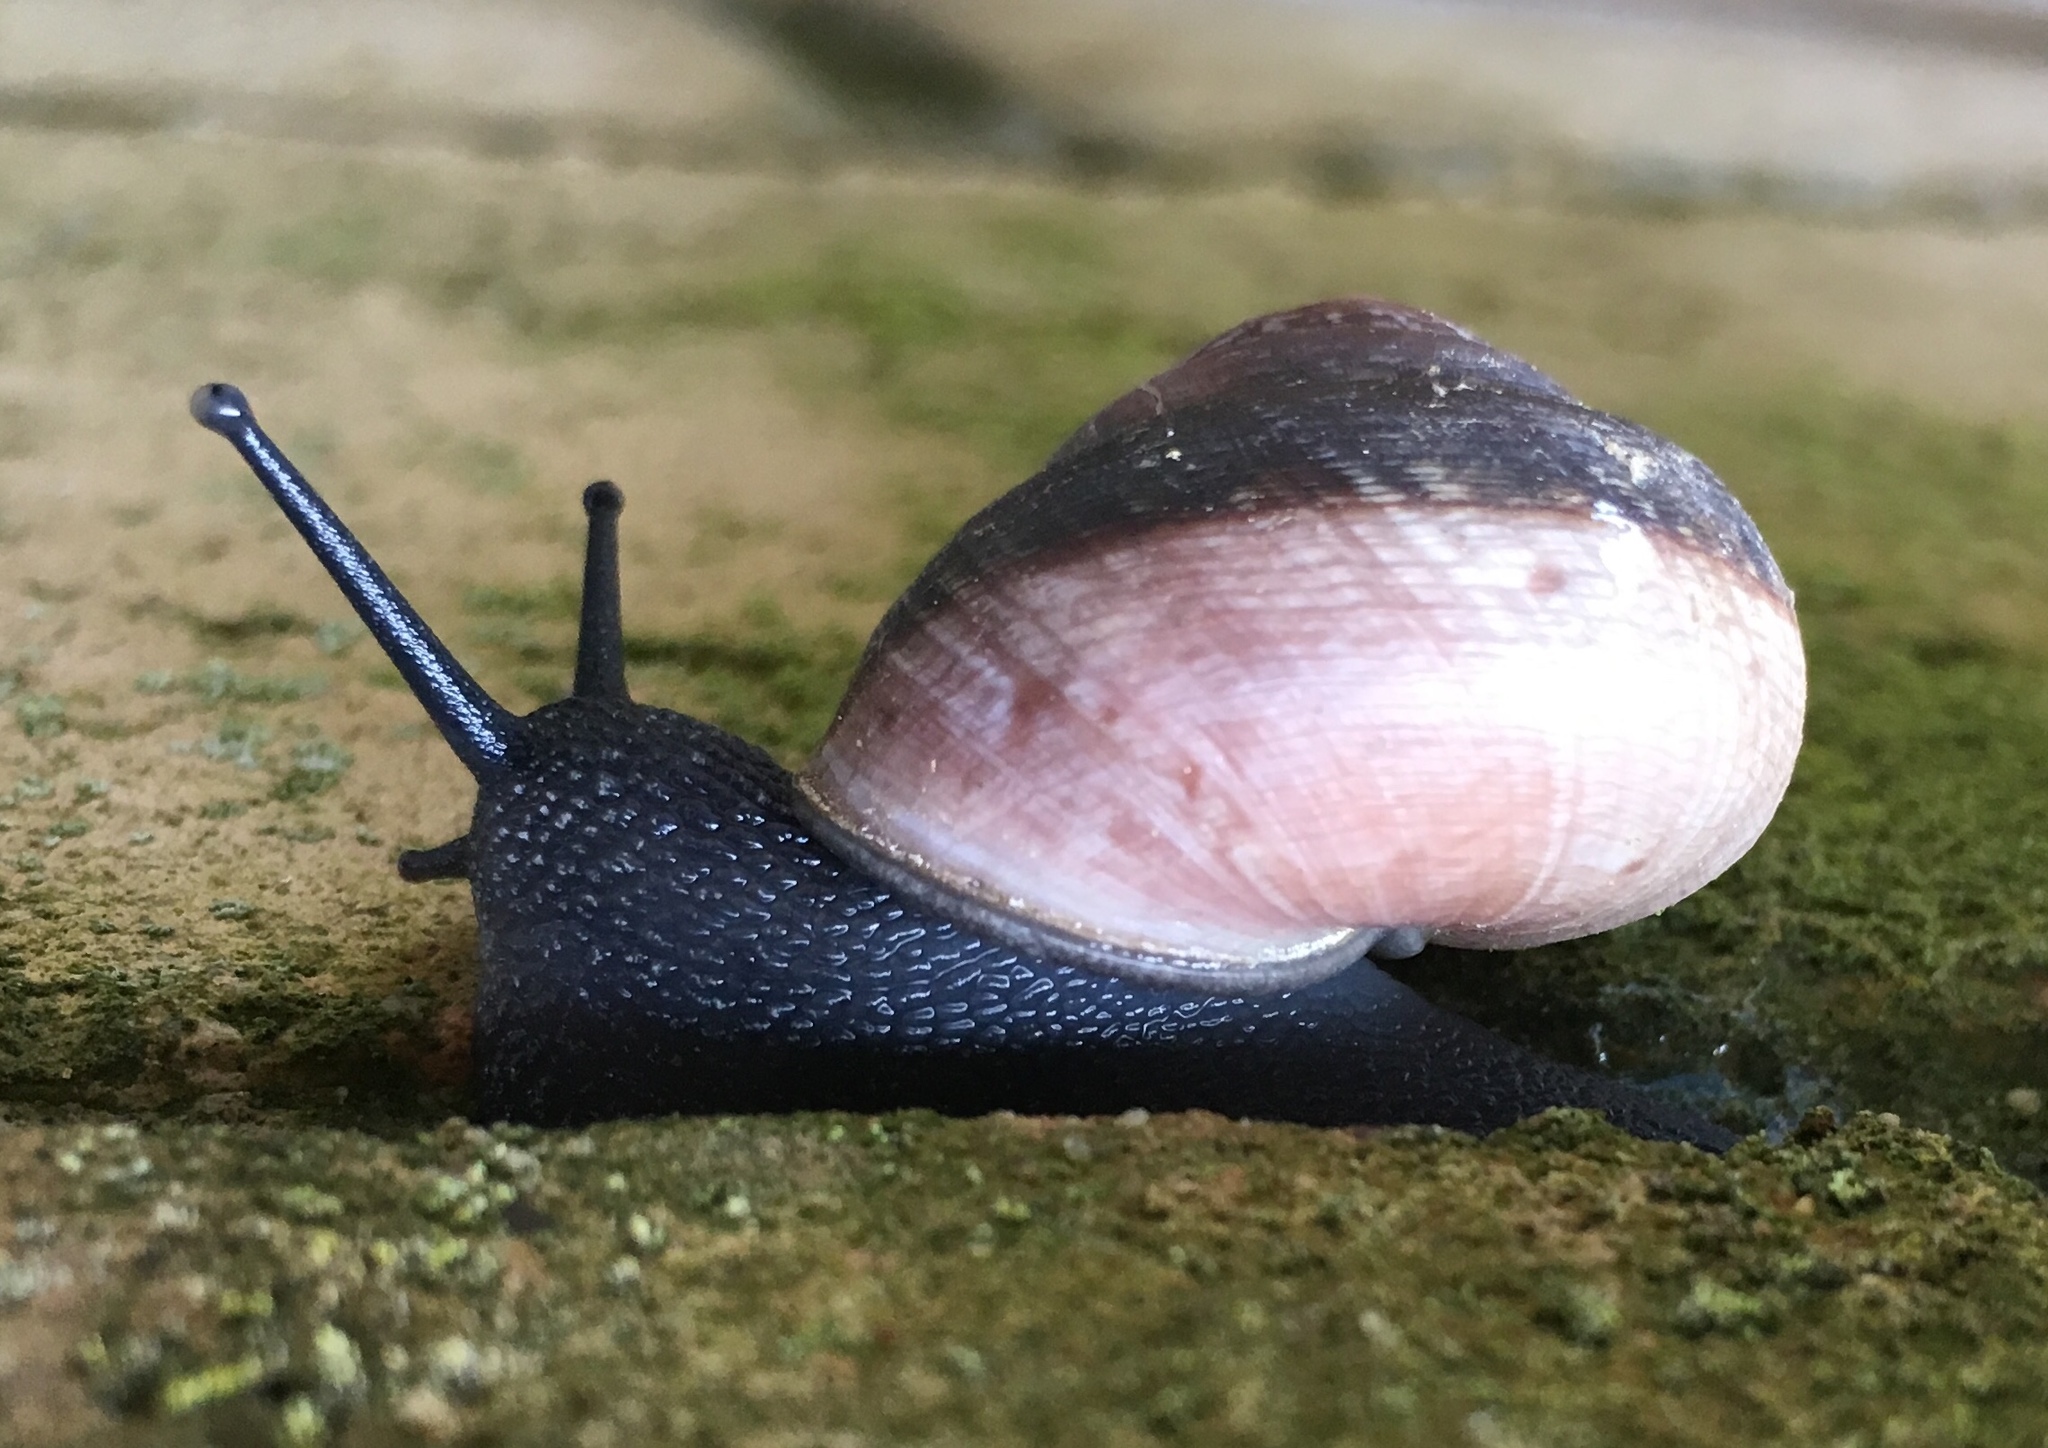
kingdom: Animalia
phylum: Mollusca
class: Gastropoda
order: Stylommatophora
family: Xanthonychidae
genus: Xerarionta
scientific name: Xerarionta tryoni
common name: Bicolor cactus snail
